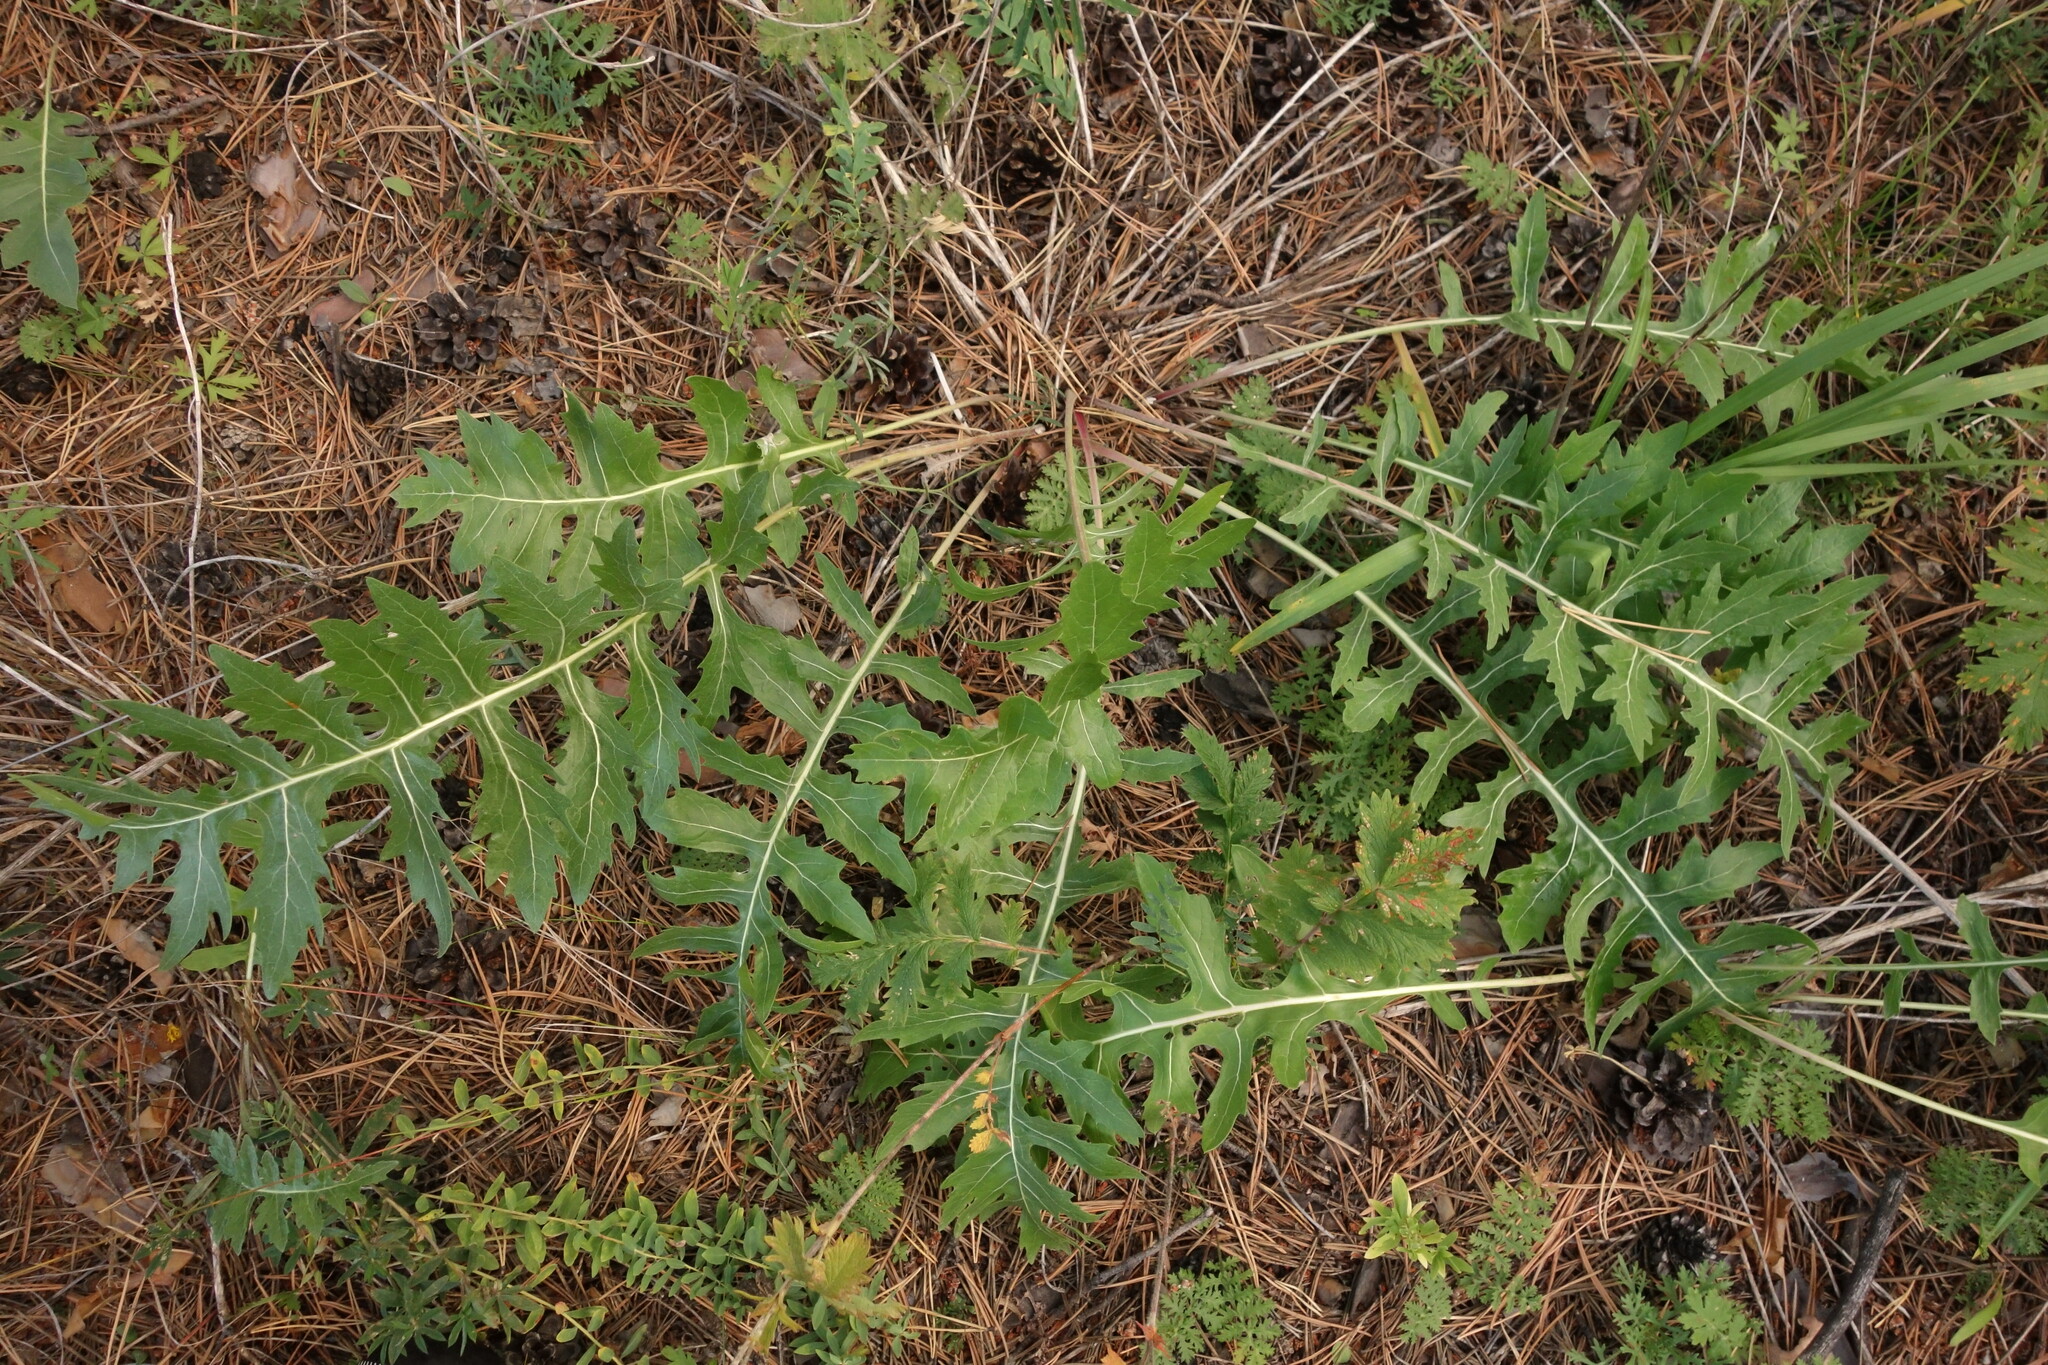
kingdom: Plantae
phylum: Tracheophyta
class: Magnoliopsida
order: Asterales
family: Asteraceae
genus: Leuzea
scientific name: Leuzea uniflora
